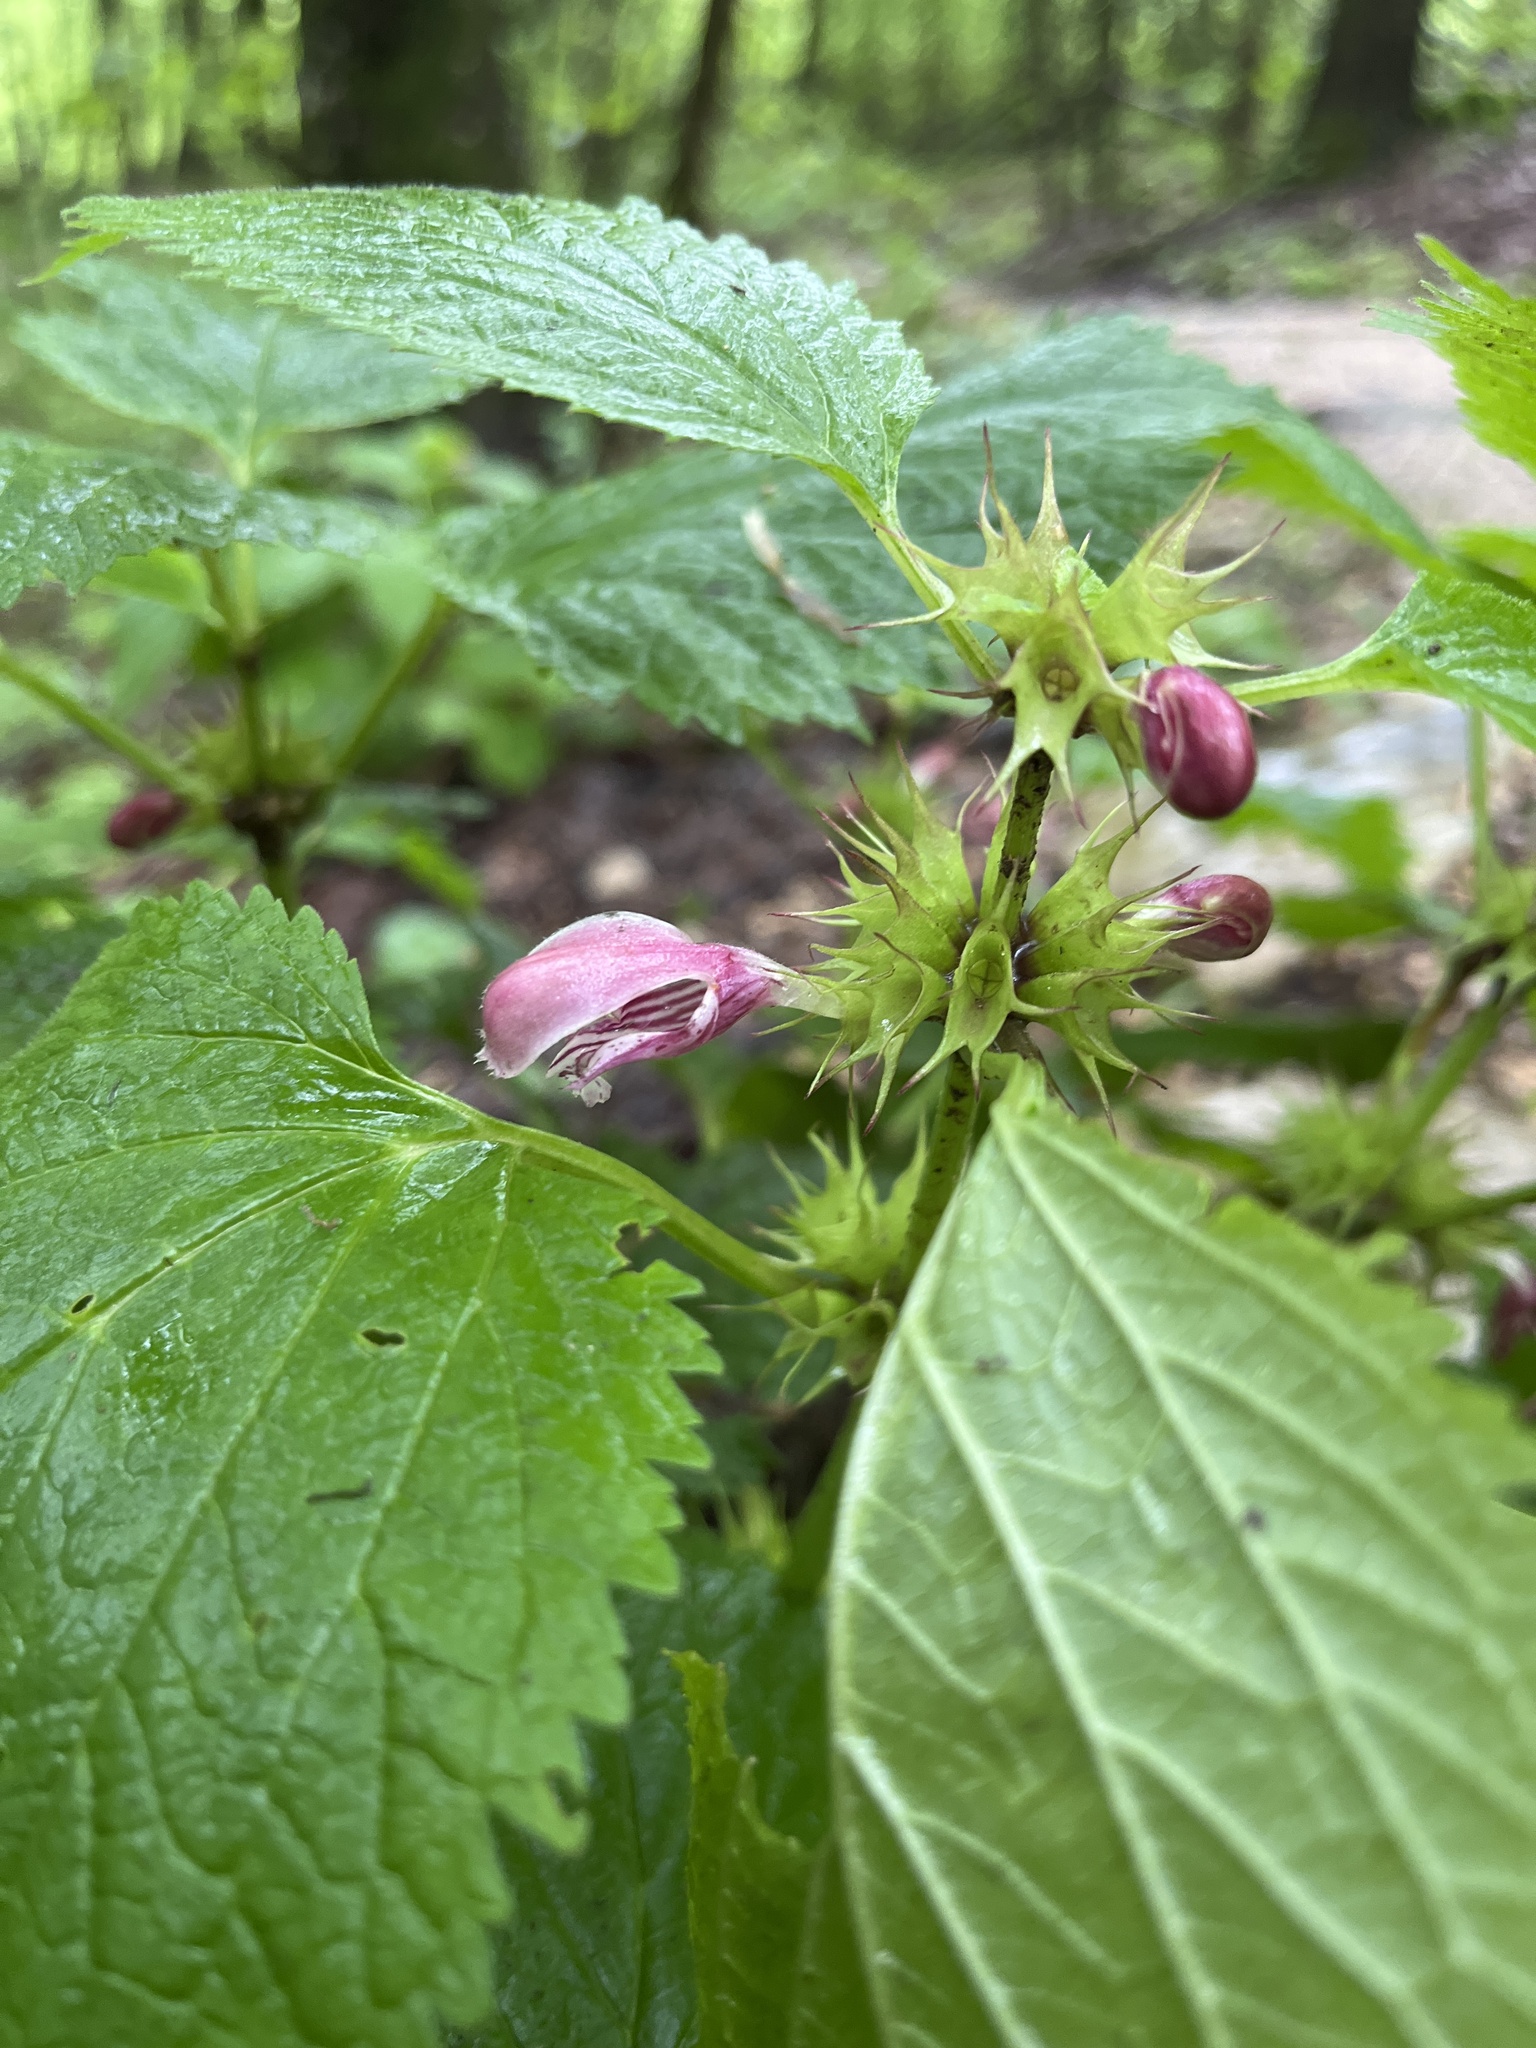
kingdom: Plantae
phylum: Tracheophyta
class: Magnoliopsida
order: Lamiales
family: Lamiaceae
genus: Lamium
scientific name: Lamium orvala
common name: Balm-leaved archangel
